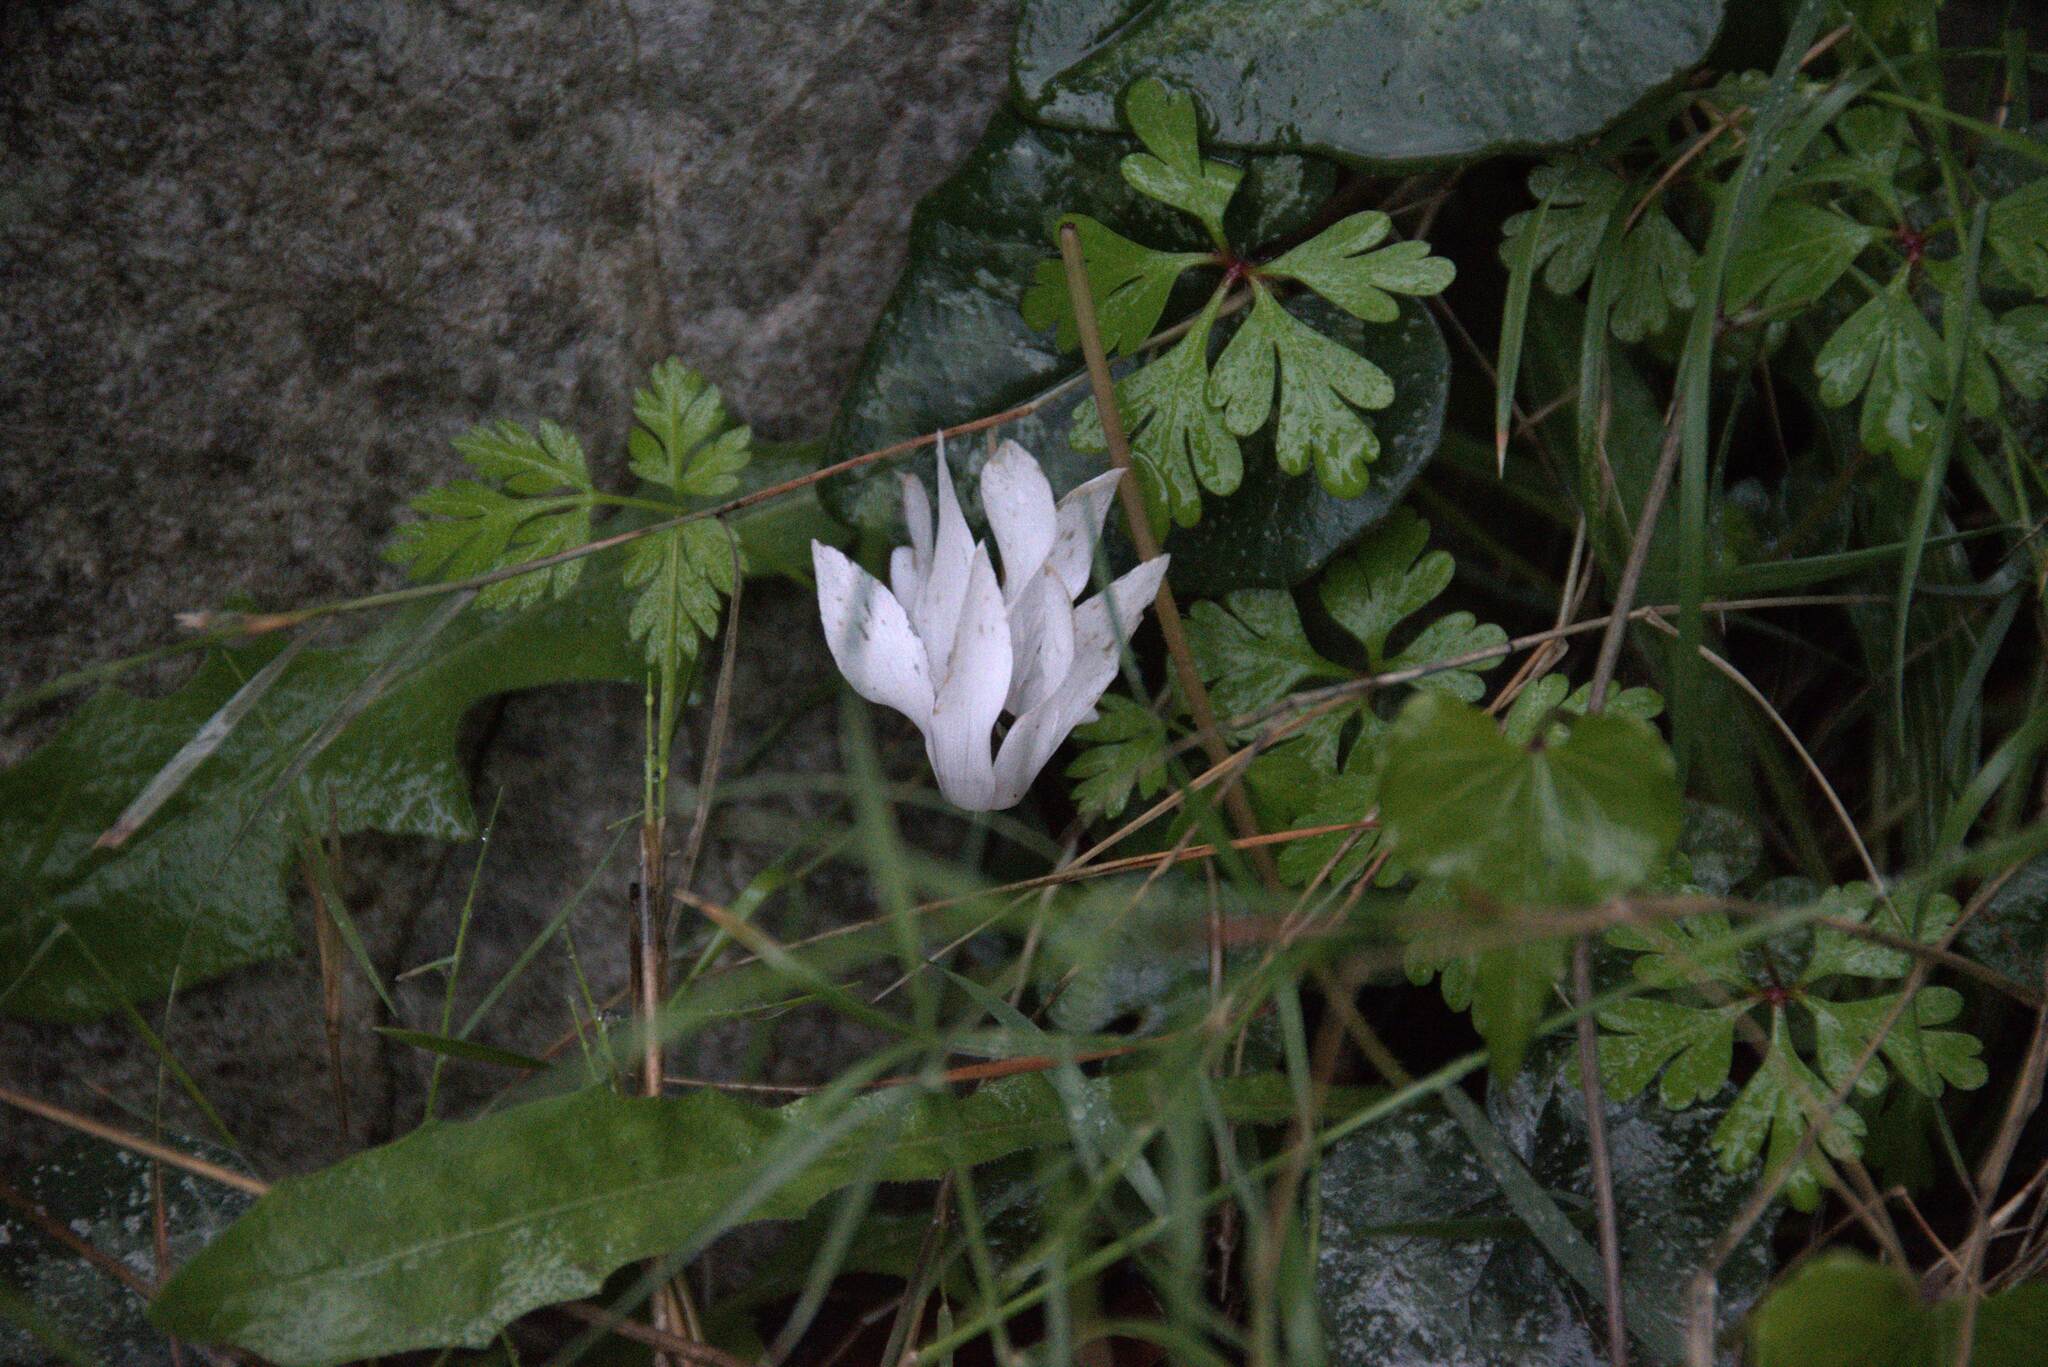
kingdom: Plantae
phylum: Tracheophyta
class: Magnoliopsida
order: Ericales
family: Primulaceae
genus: Cyclamen
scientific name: Cyclamen creticum
